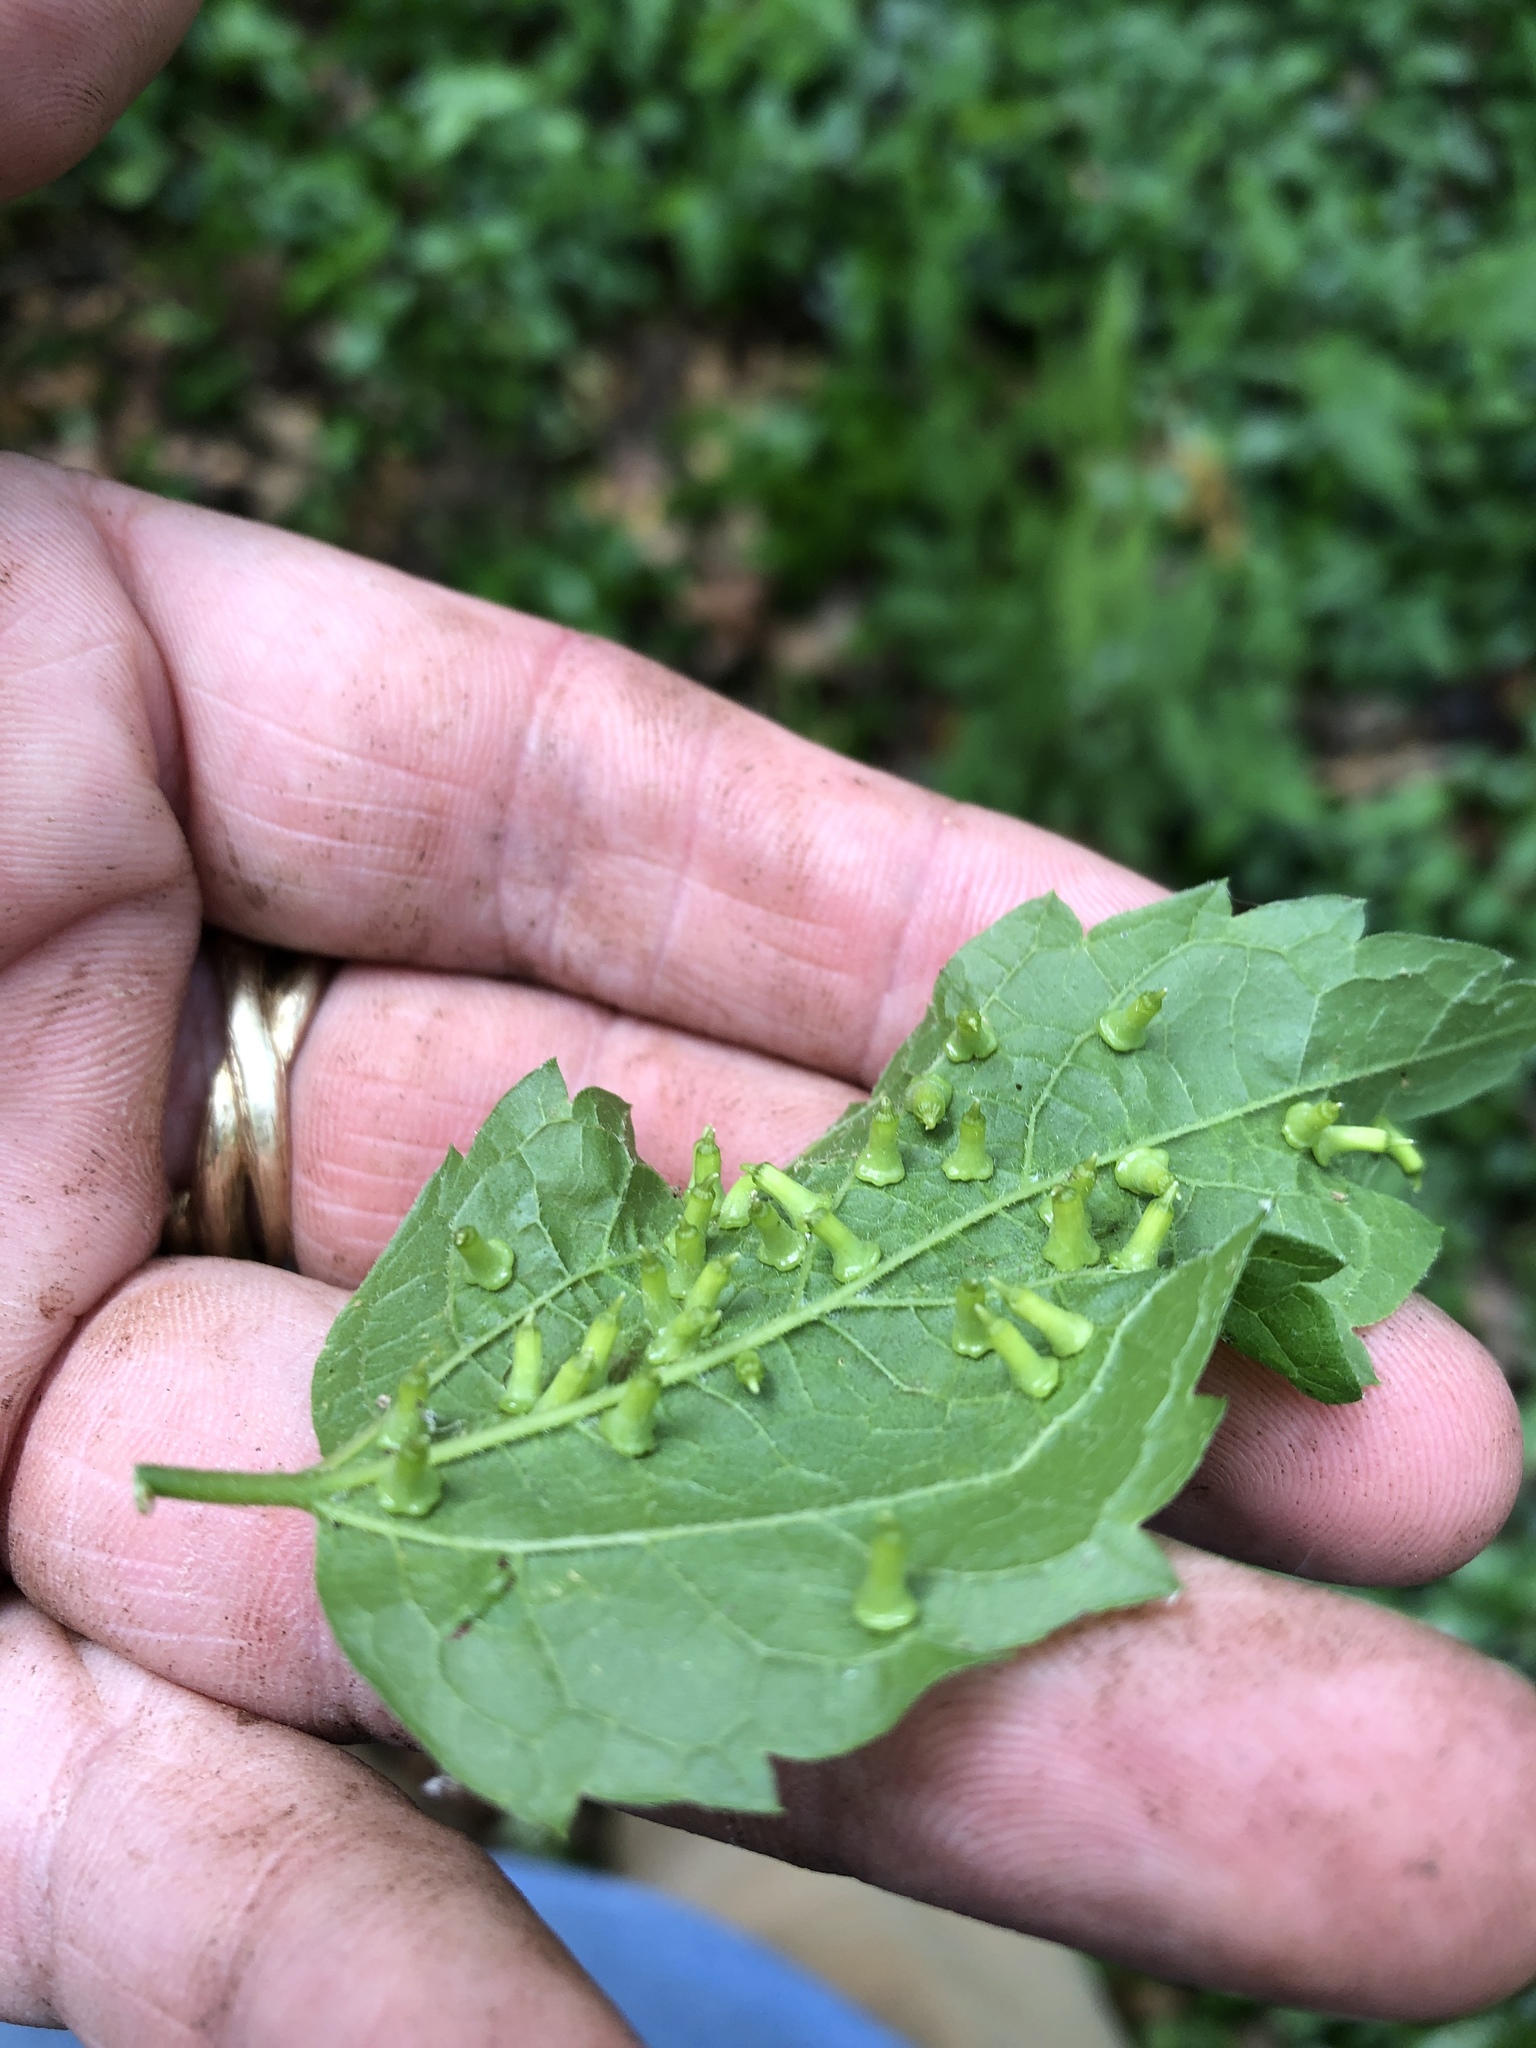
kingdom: Animalia
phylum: Arthropoda
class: Insecta
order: Diptera
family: Cecidomyiidae
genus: Celticecis
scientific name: Celticecis aciculata
